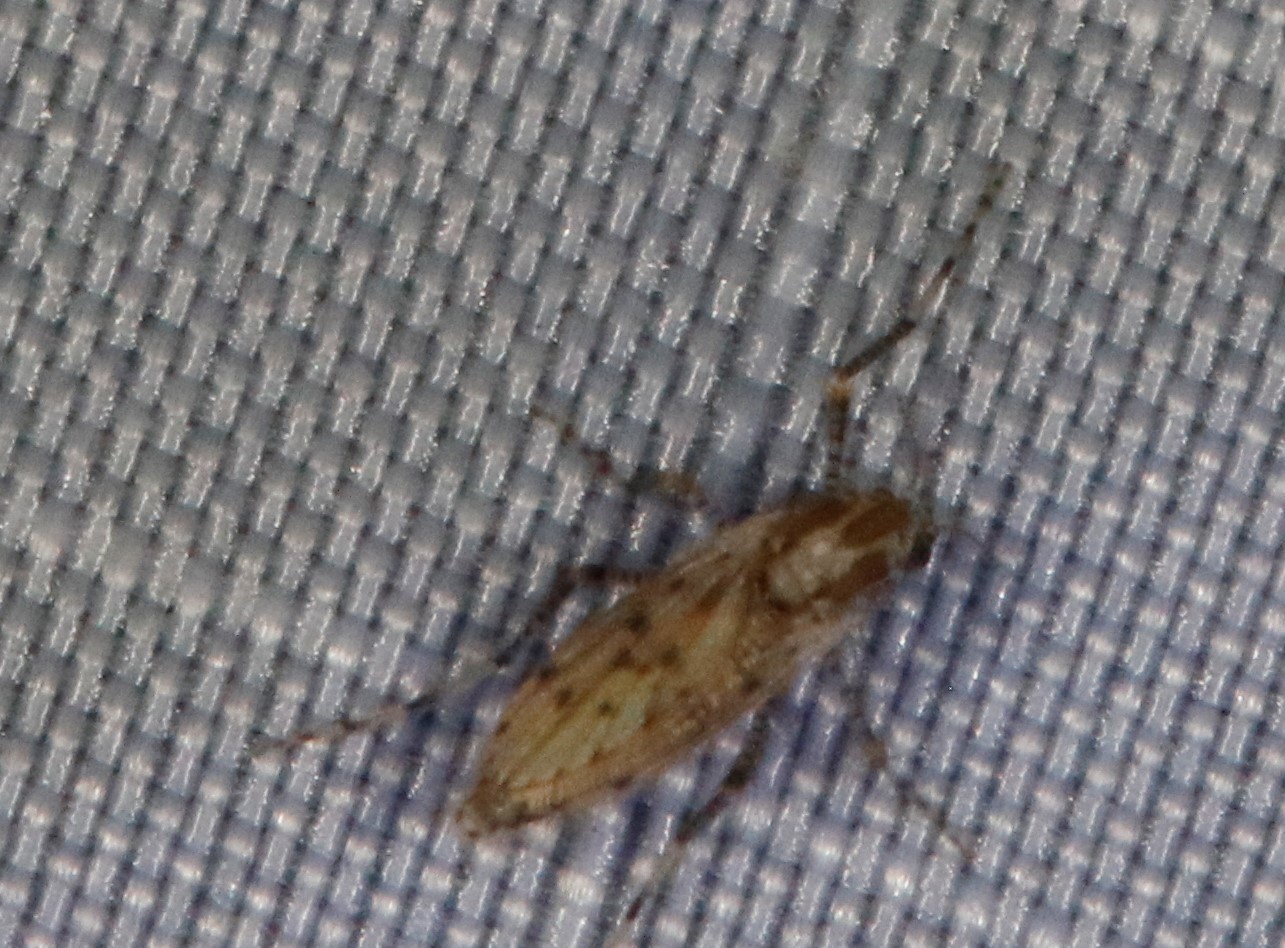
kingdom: Animalia
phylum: Arthropoda
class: Insecta
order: Diptera
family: Chaoboridae
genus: Chaoborus
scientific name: Chaoborus punctipennis
